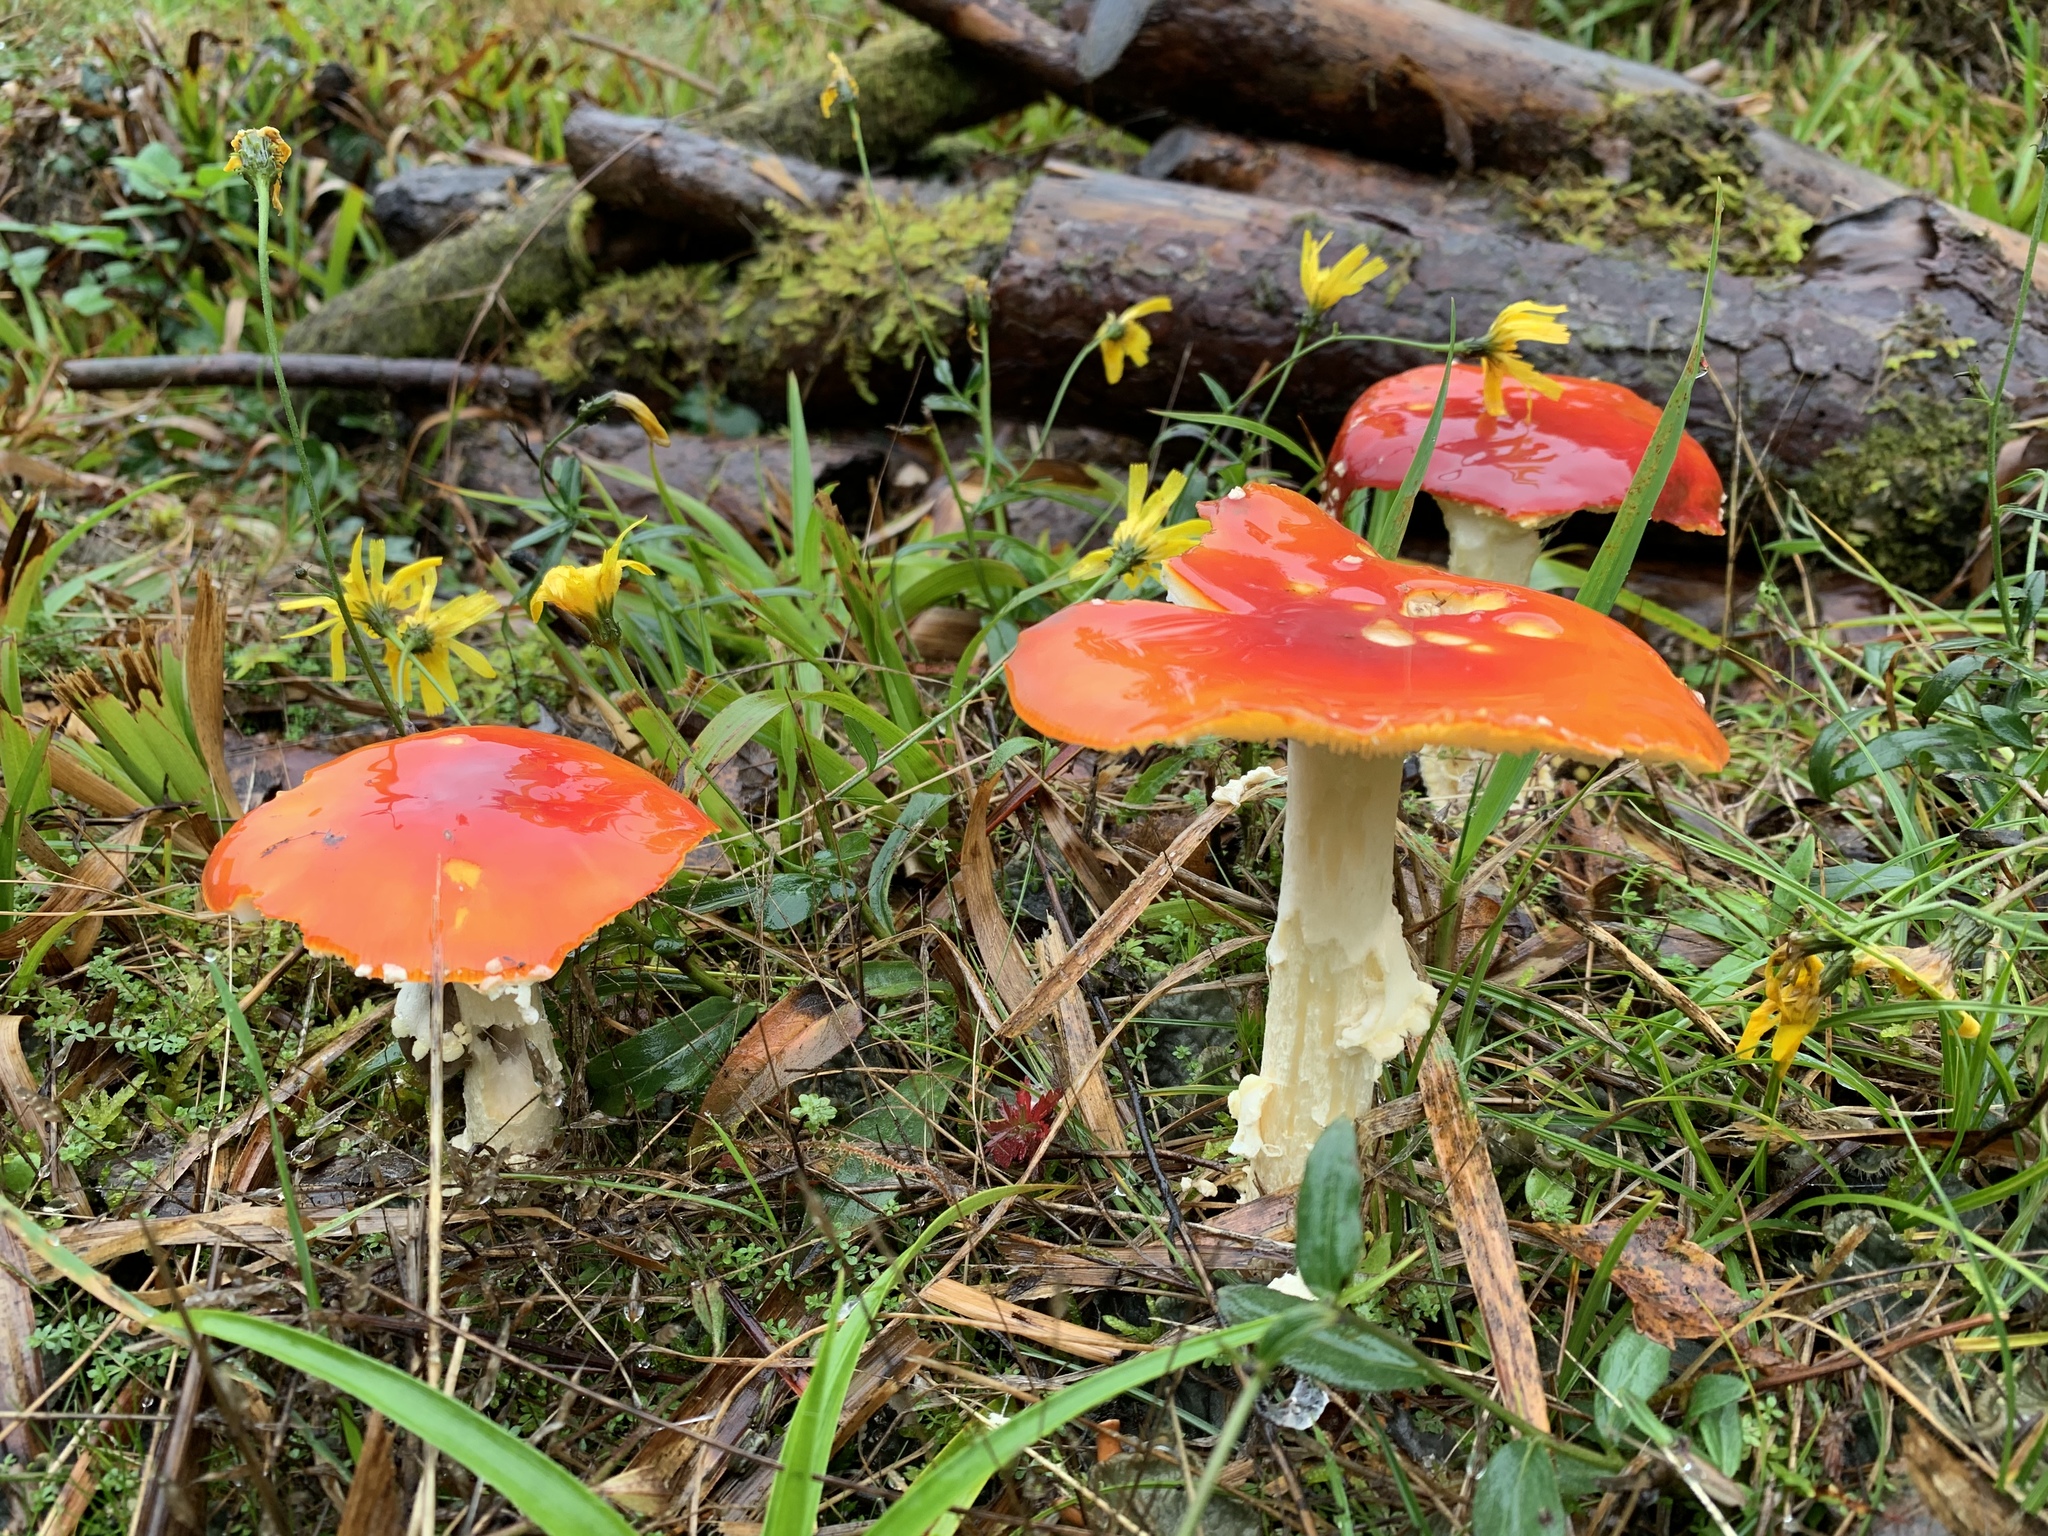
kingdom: Fungi
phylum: Basidiomycota
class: Agaricomycetes
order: Agaricales
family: Amanitaceae
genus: Amanita
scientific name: Amanita muscaria
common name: Fly agaric
